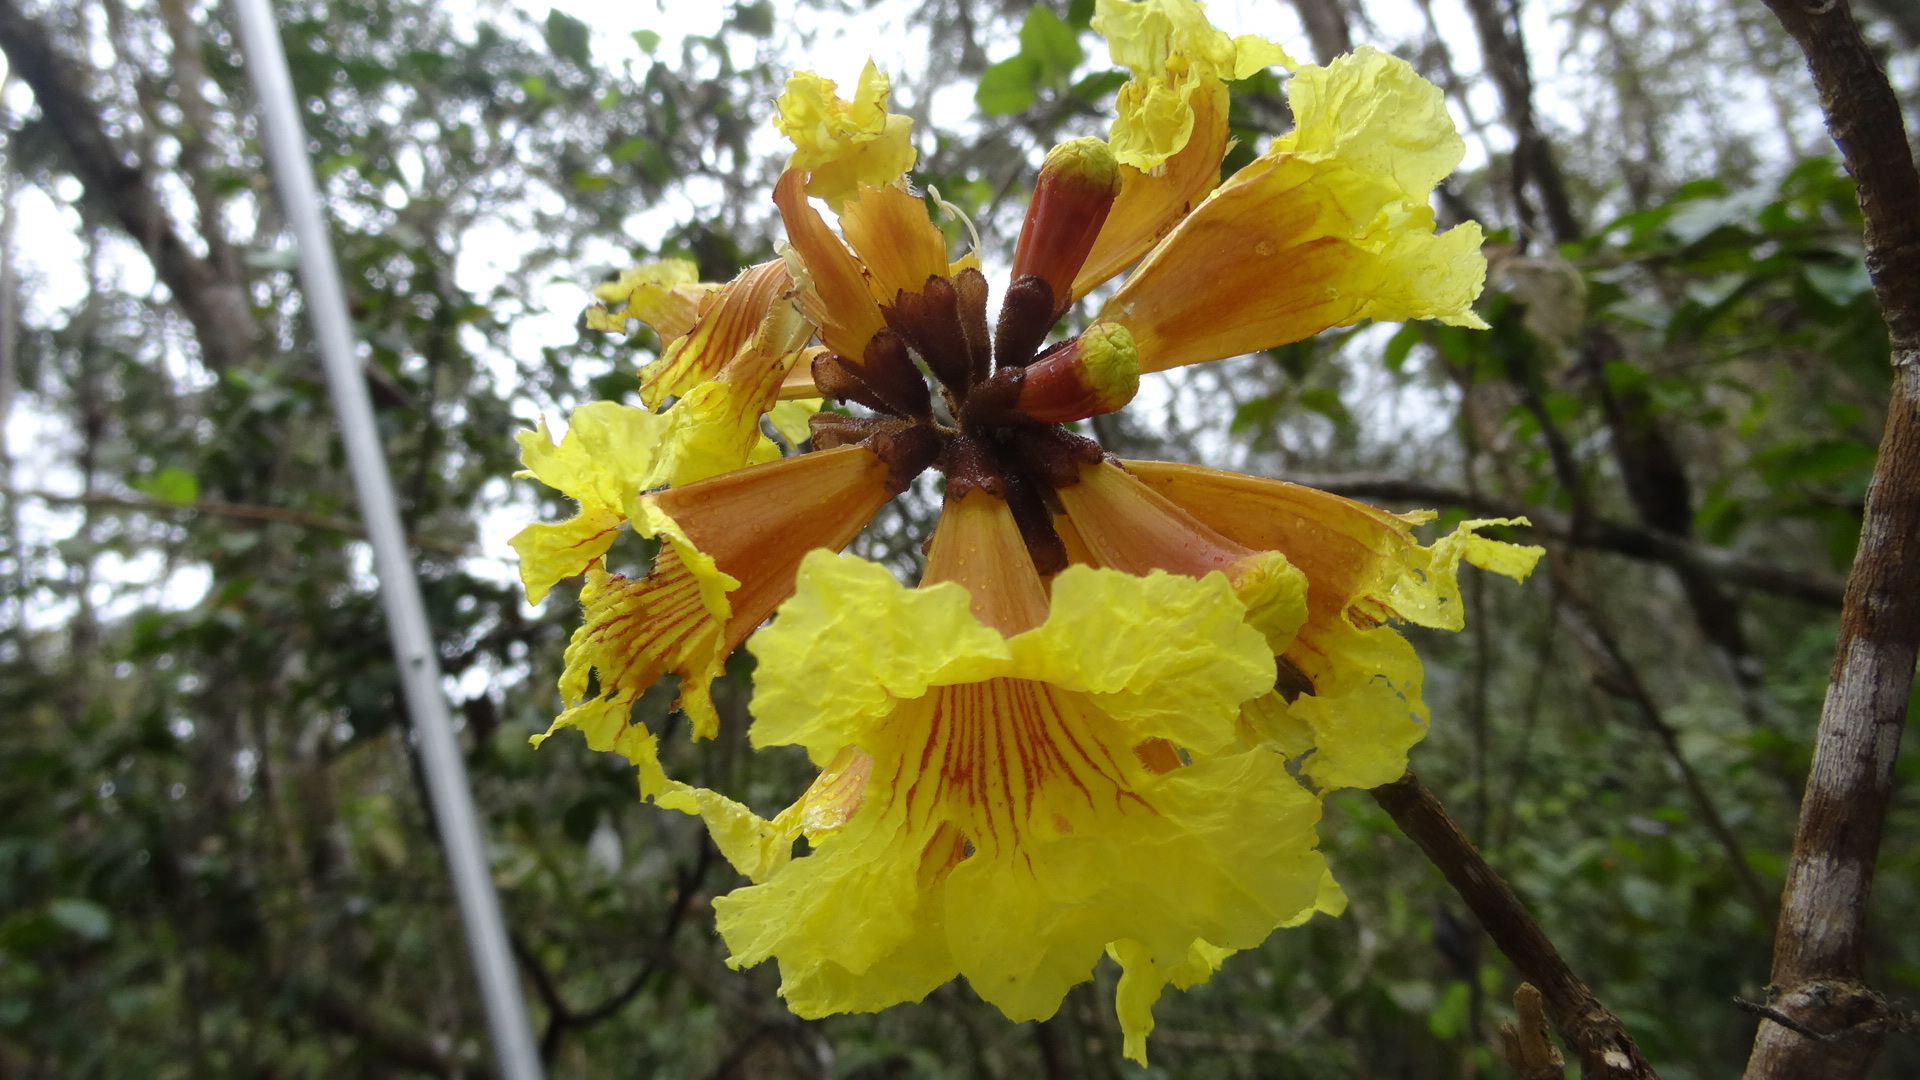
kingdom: Plantae
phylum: Tracheophyta
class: Magnoliopsida
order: Lamiales
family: Bignoniaceae
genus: Handroanthus
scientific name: Handroanthus chrysanthus
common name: Trumpet trees
